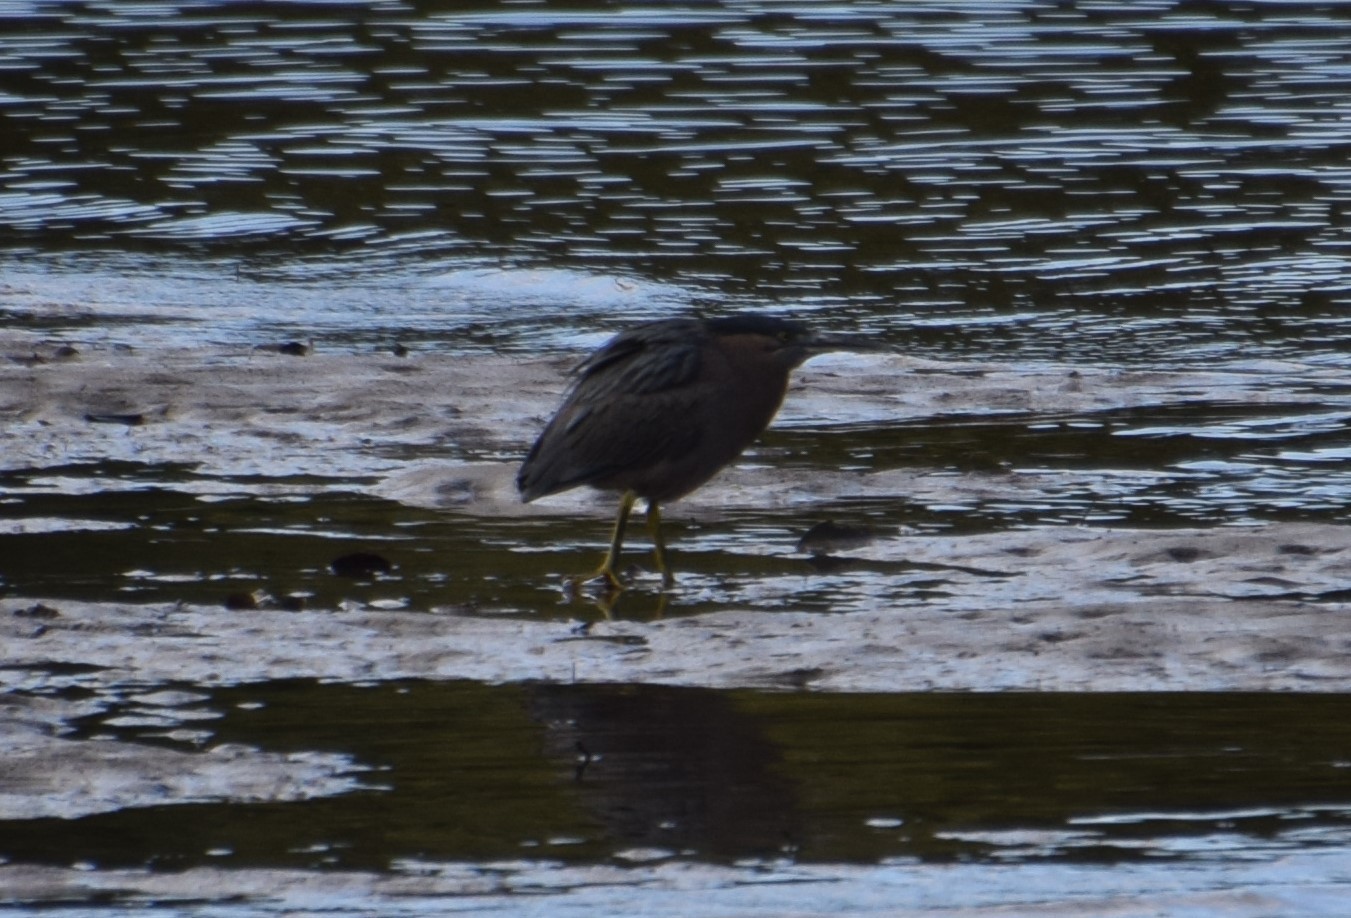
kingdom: Animalia
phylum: Chordata
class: Aves
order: Pelecaniformes
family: Ardeidae
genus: Butorides
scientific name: Butorides striata
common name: Striated heron
